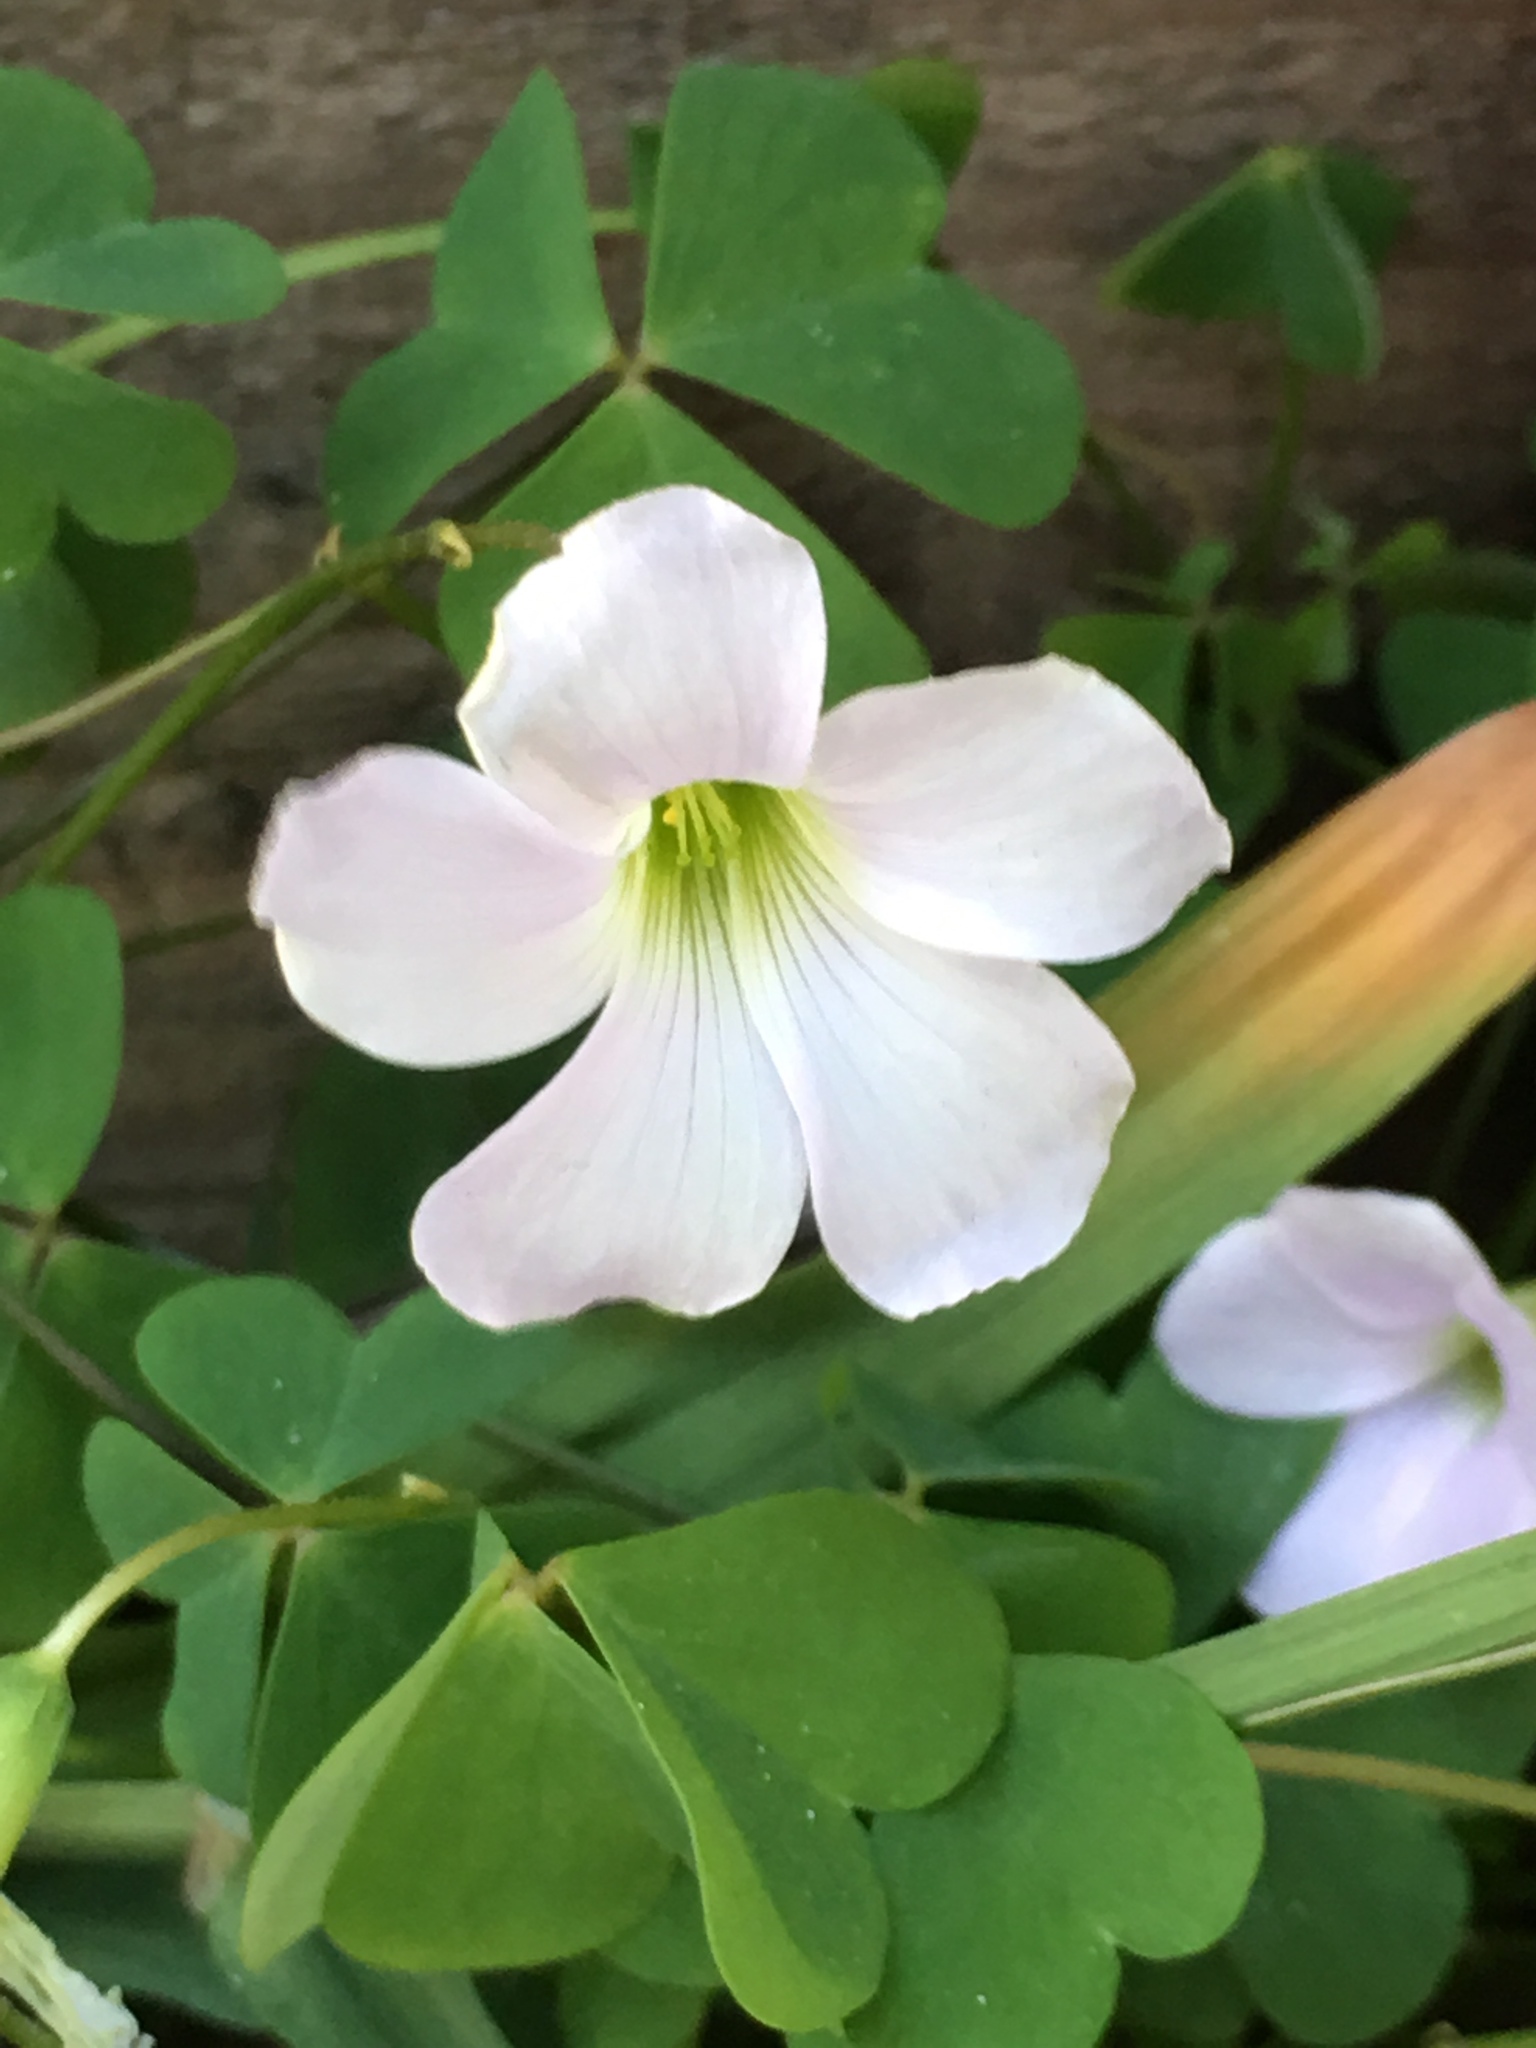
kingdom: Plantae
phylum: Tracheophyta
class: Magnoliopsida
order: Oxalidales
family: Oxalidaceae
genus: Oxalis
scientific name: Oxalis incarnata
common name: Pale pink-sorrel
